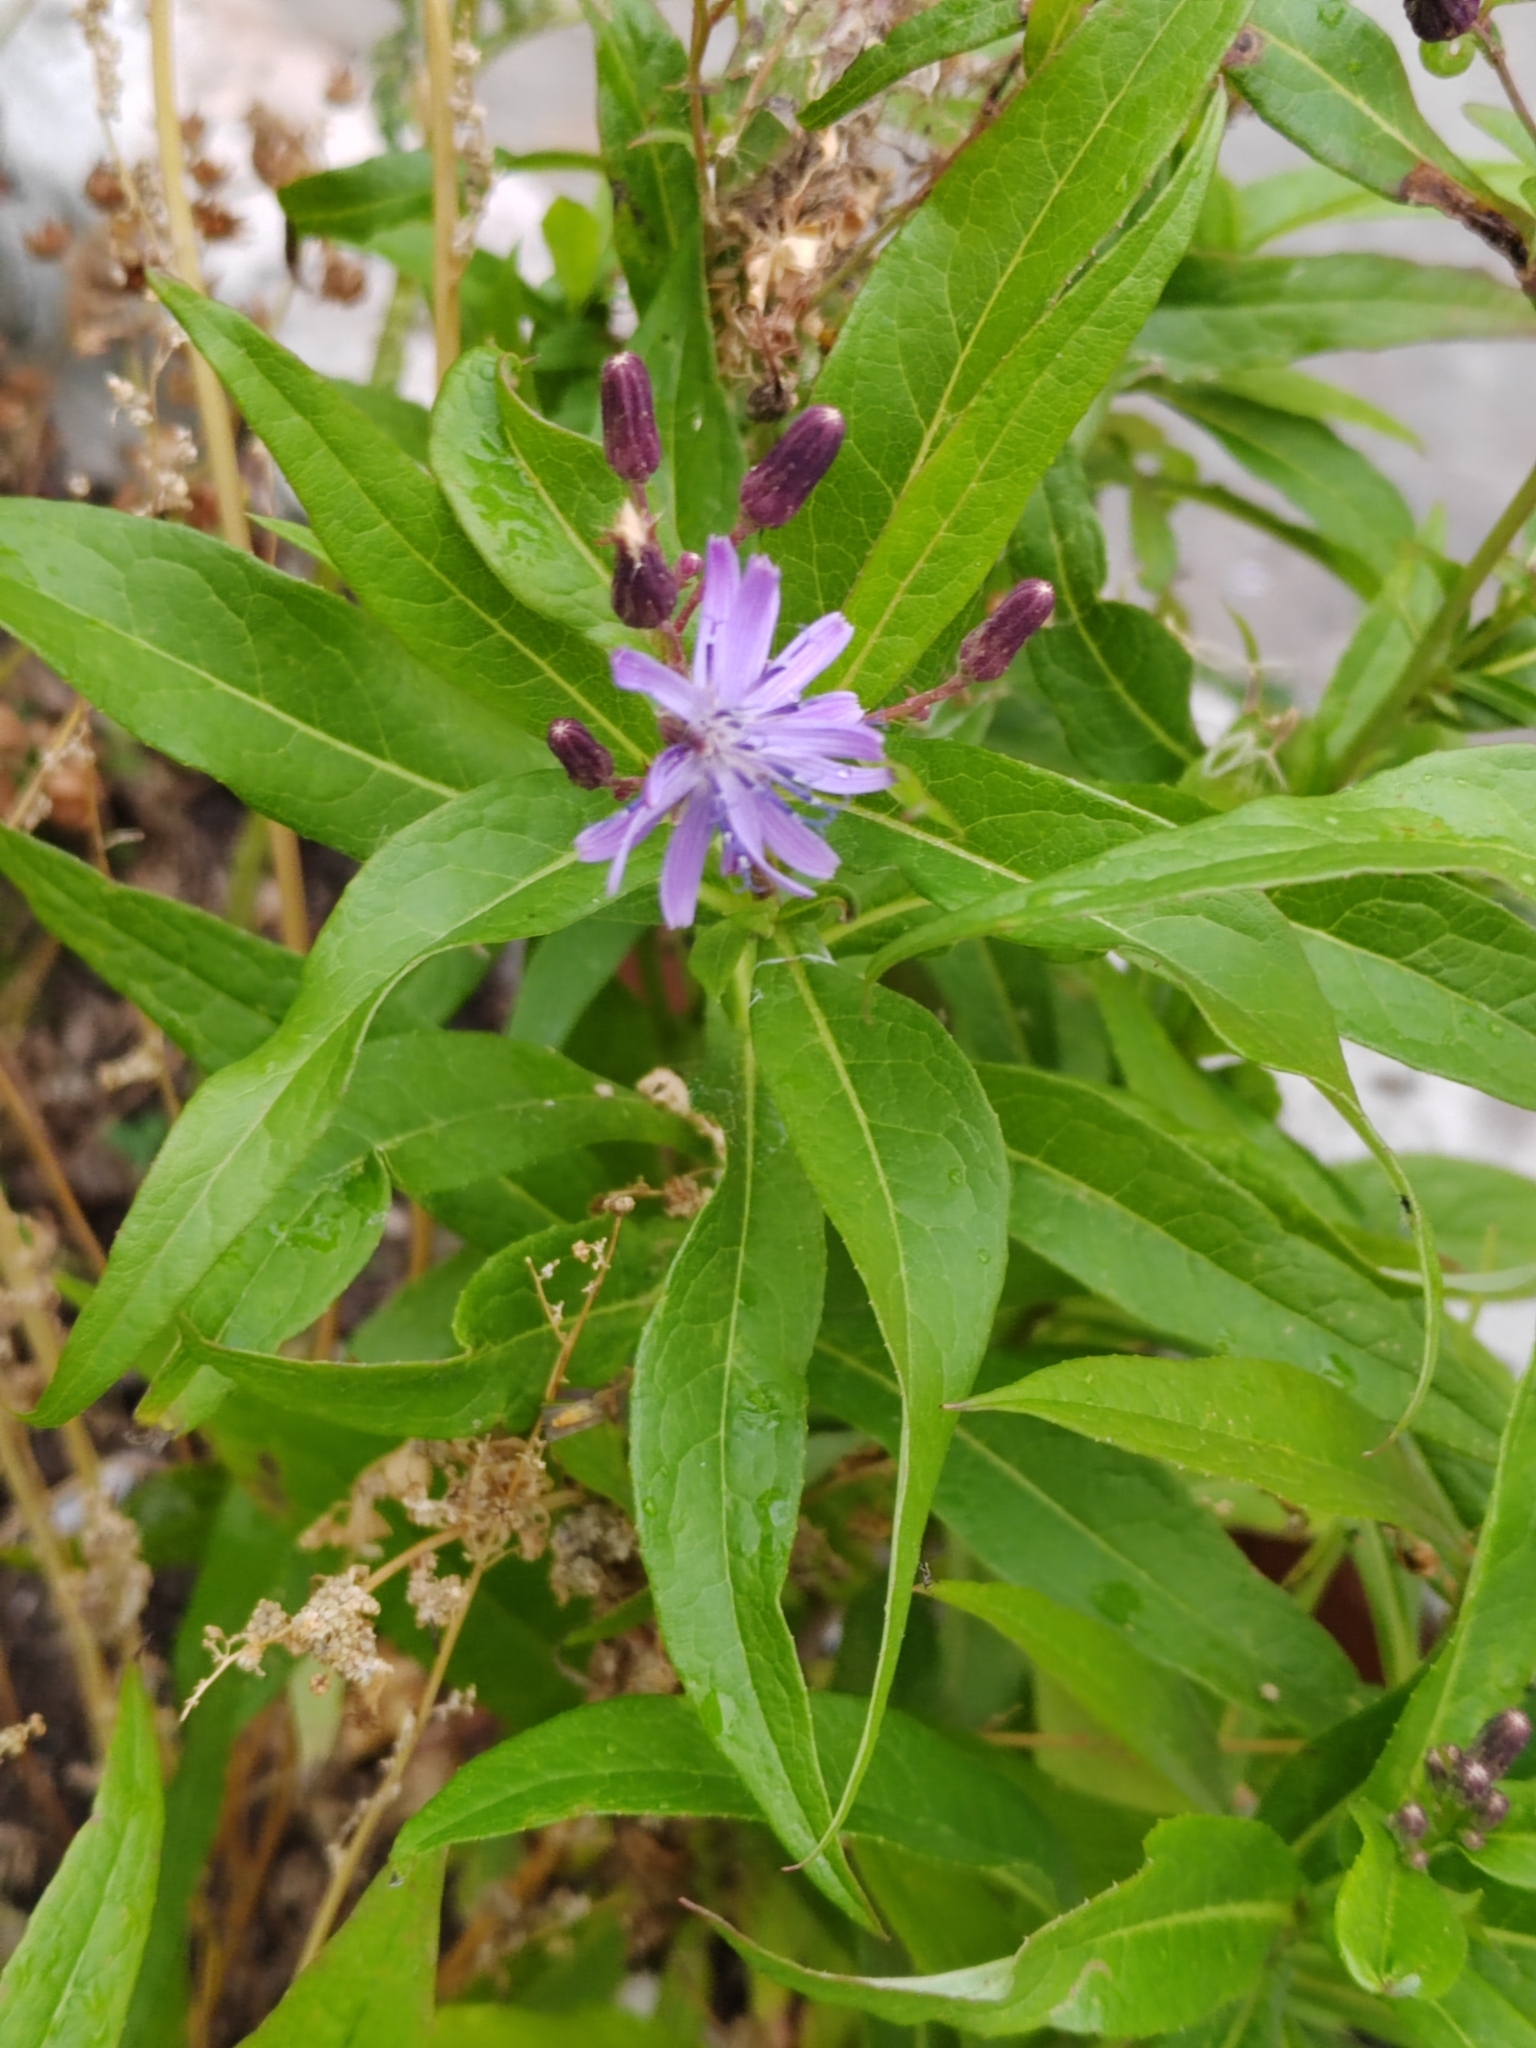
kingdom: Plantae
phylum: Tracheophyta
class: Magnoliopsida
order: Asterales
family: Asteraceae
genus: Lactuca
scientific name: Lactuca sibirica
